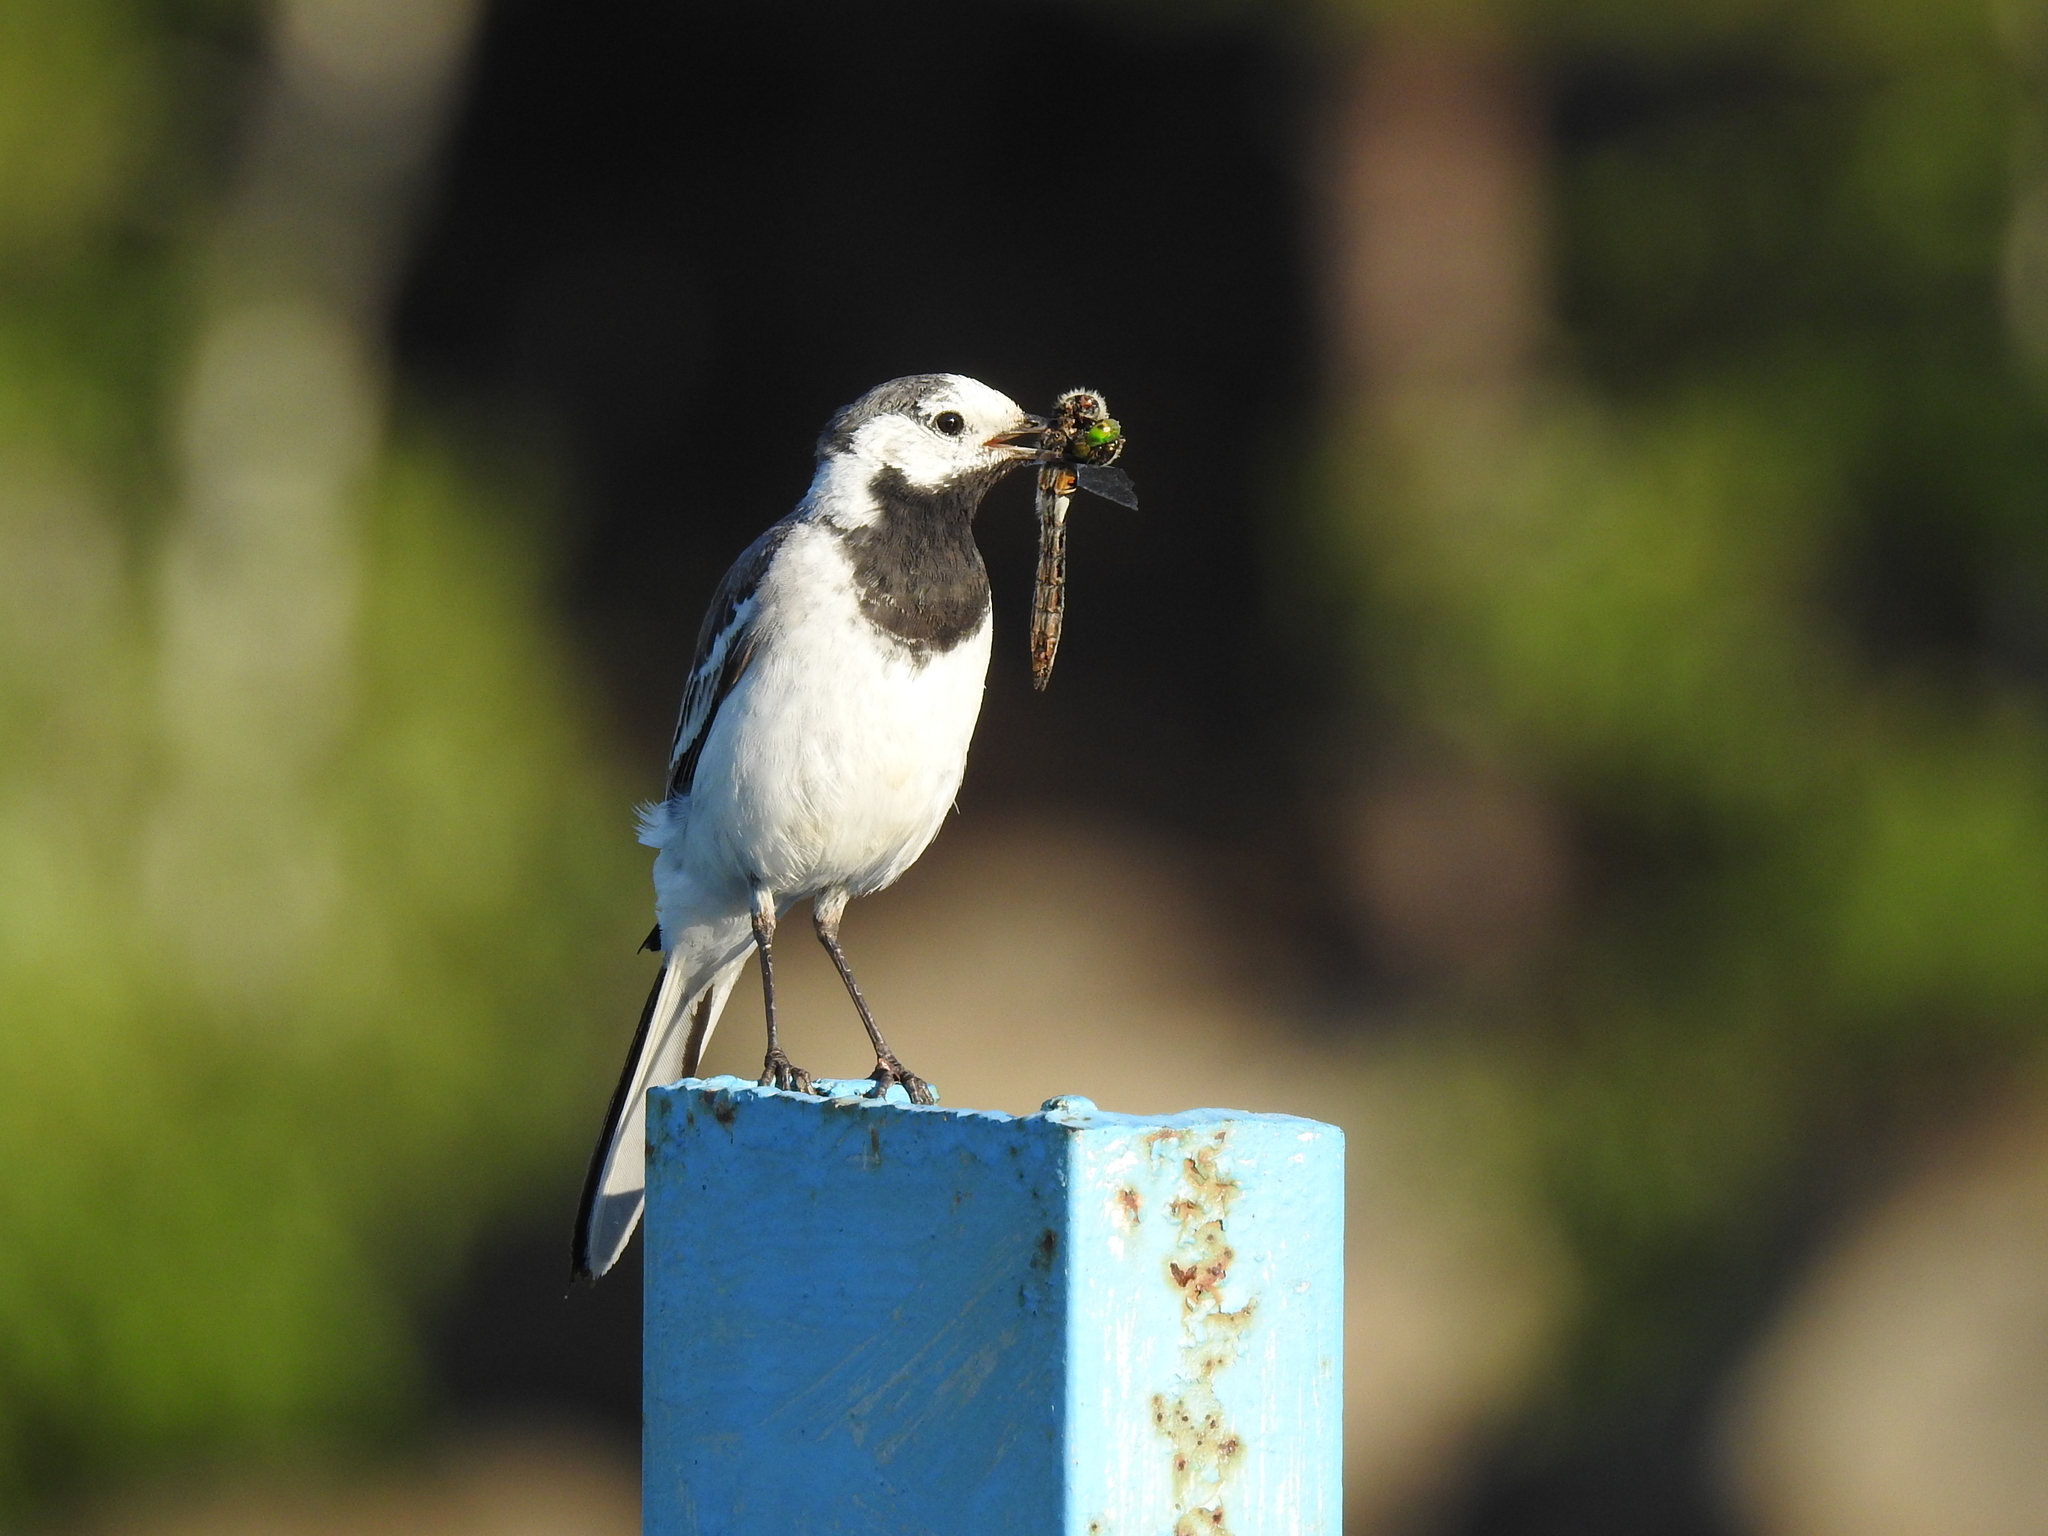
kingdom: Animalia
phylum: Chordata
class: Aves
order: Passeriformes
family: Motacillidae
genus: Motacilla
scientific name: Motacilla alba
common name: White wagtail
